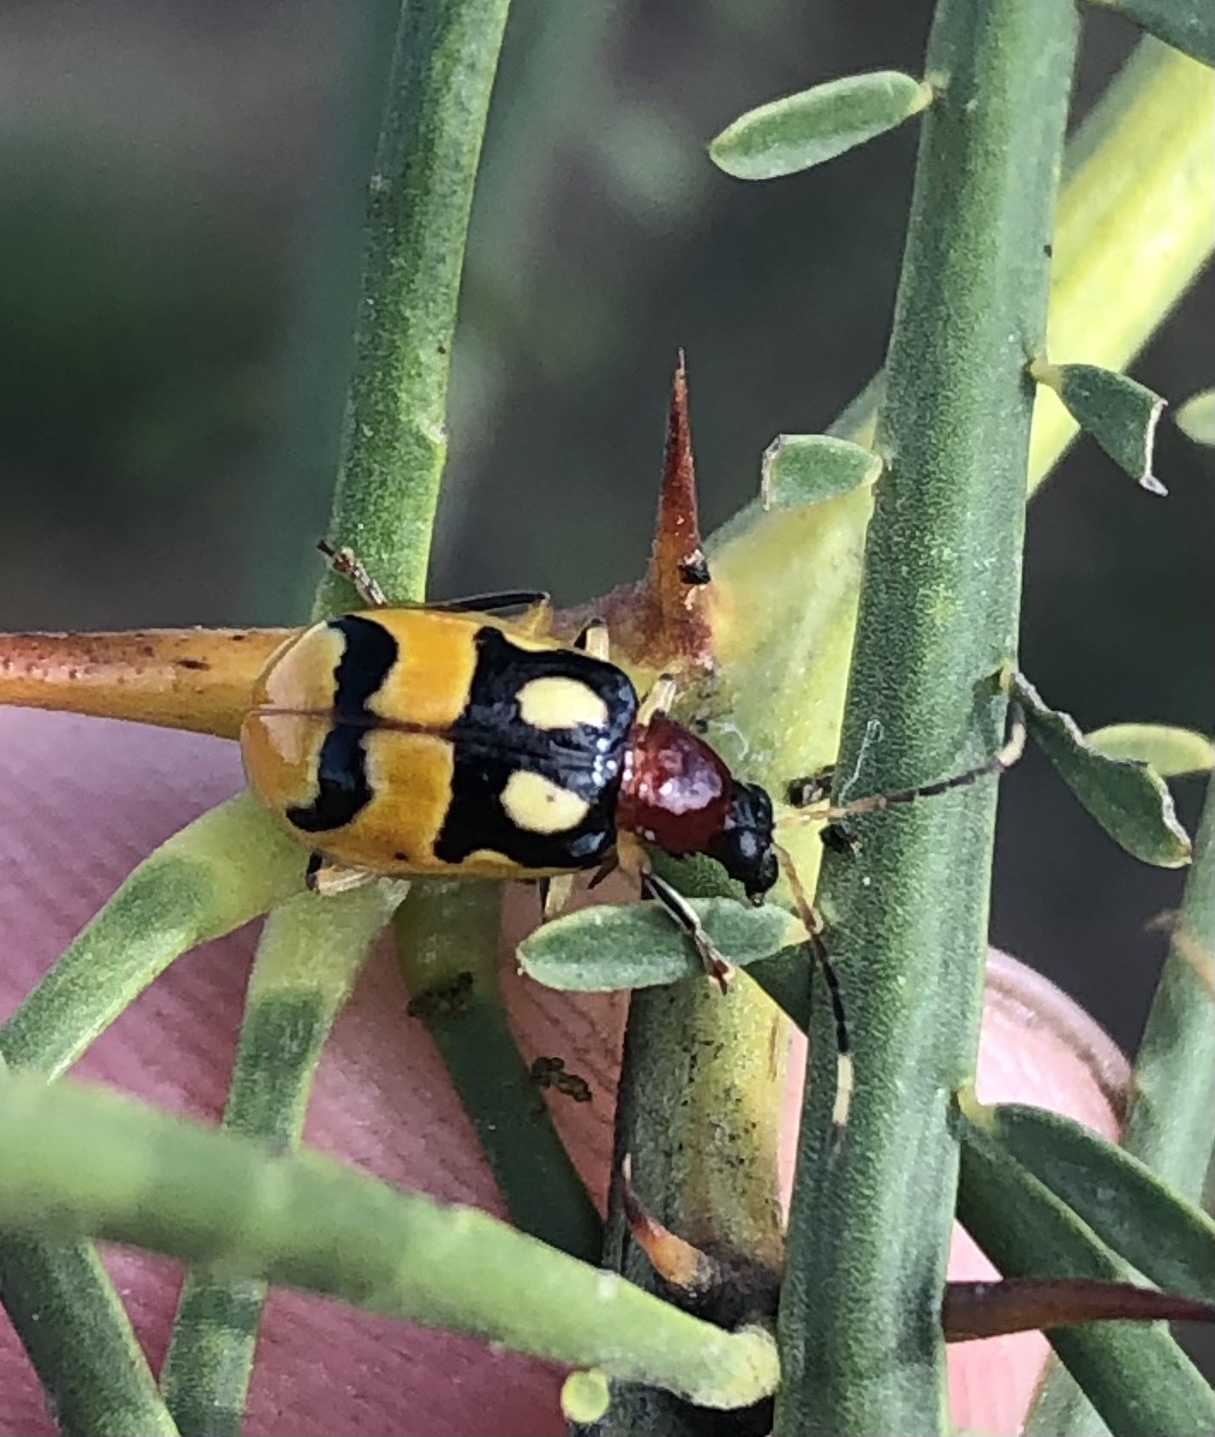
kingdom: Animalia
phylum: Arthropoda
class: Insecta
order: Coleoptera
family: Chrysomelidae
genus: Diabrotica
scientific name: Diabrotica adelpha
